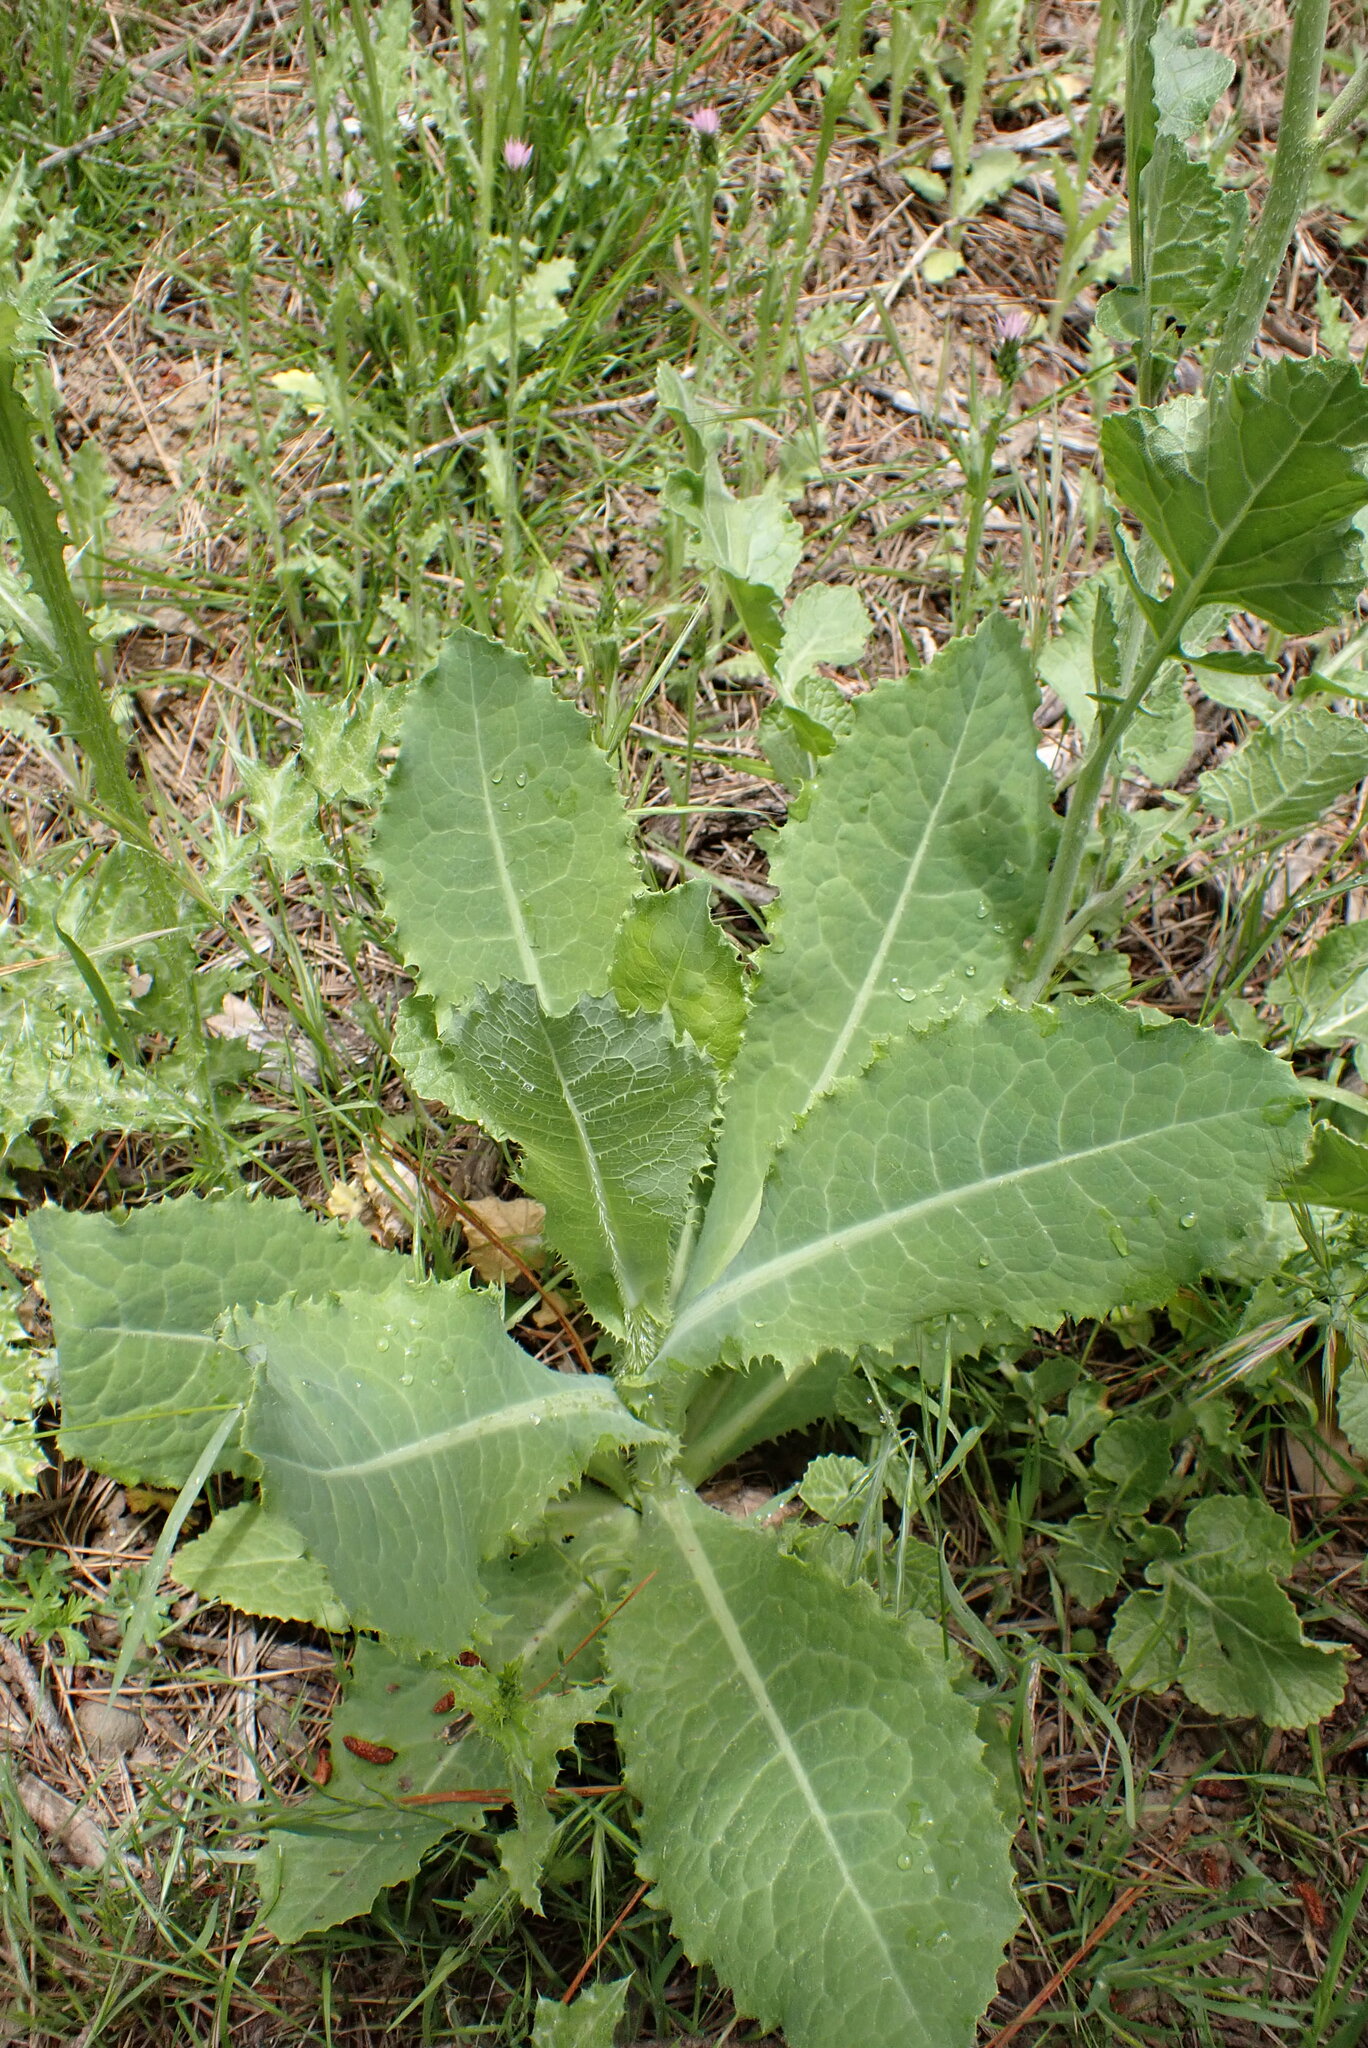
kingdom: Plantae
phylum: Tracheophyta
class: Magnoliopsida
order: Asterales
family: Asteraceae
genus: Lactuca
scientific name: Lactuca virosa
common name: Great lettuce
